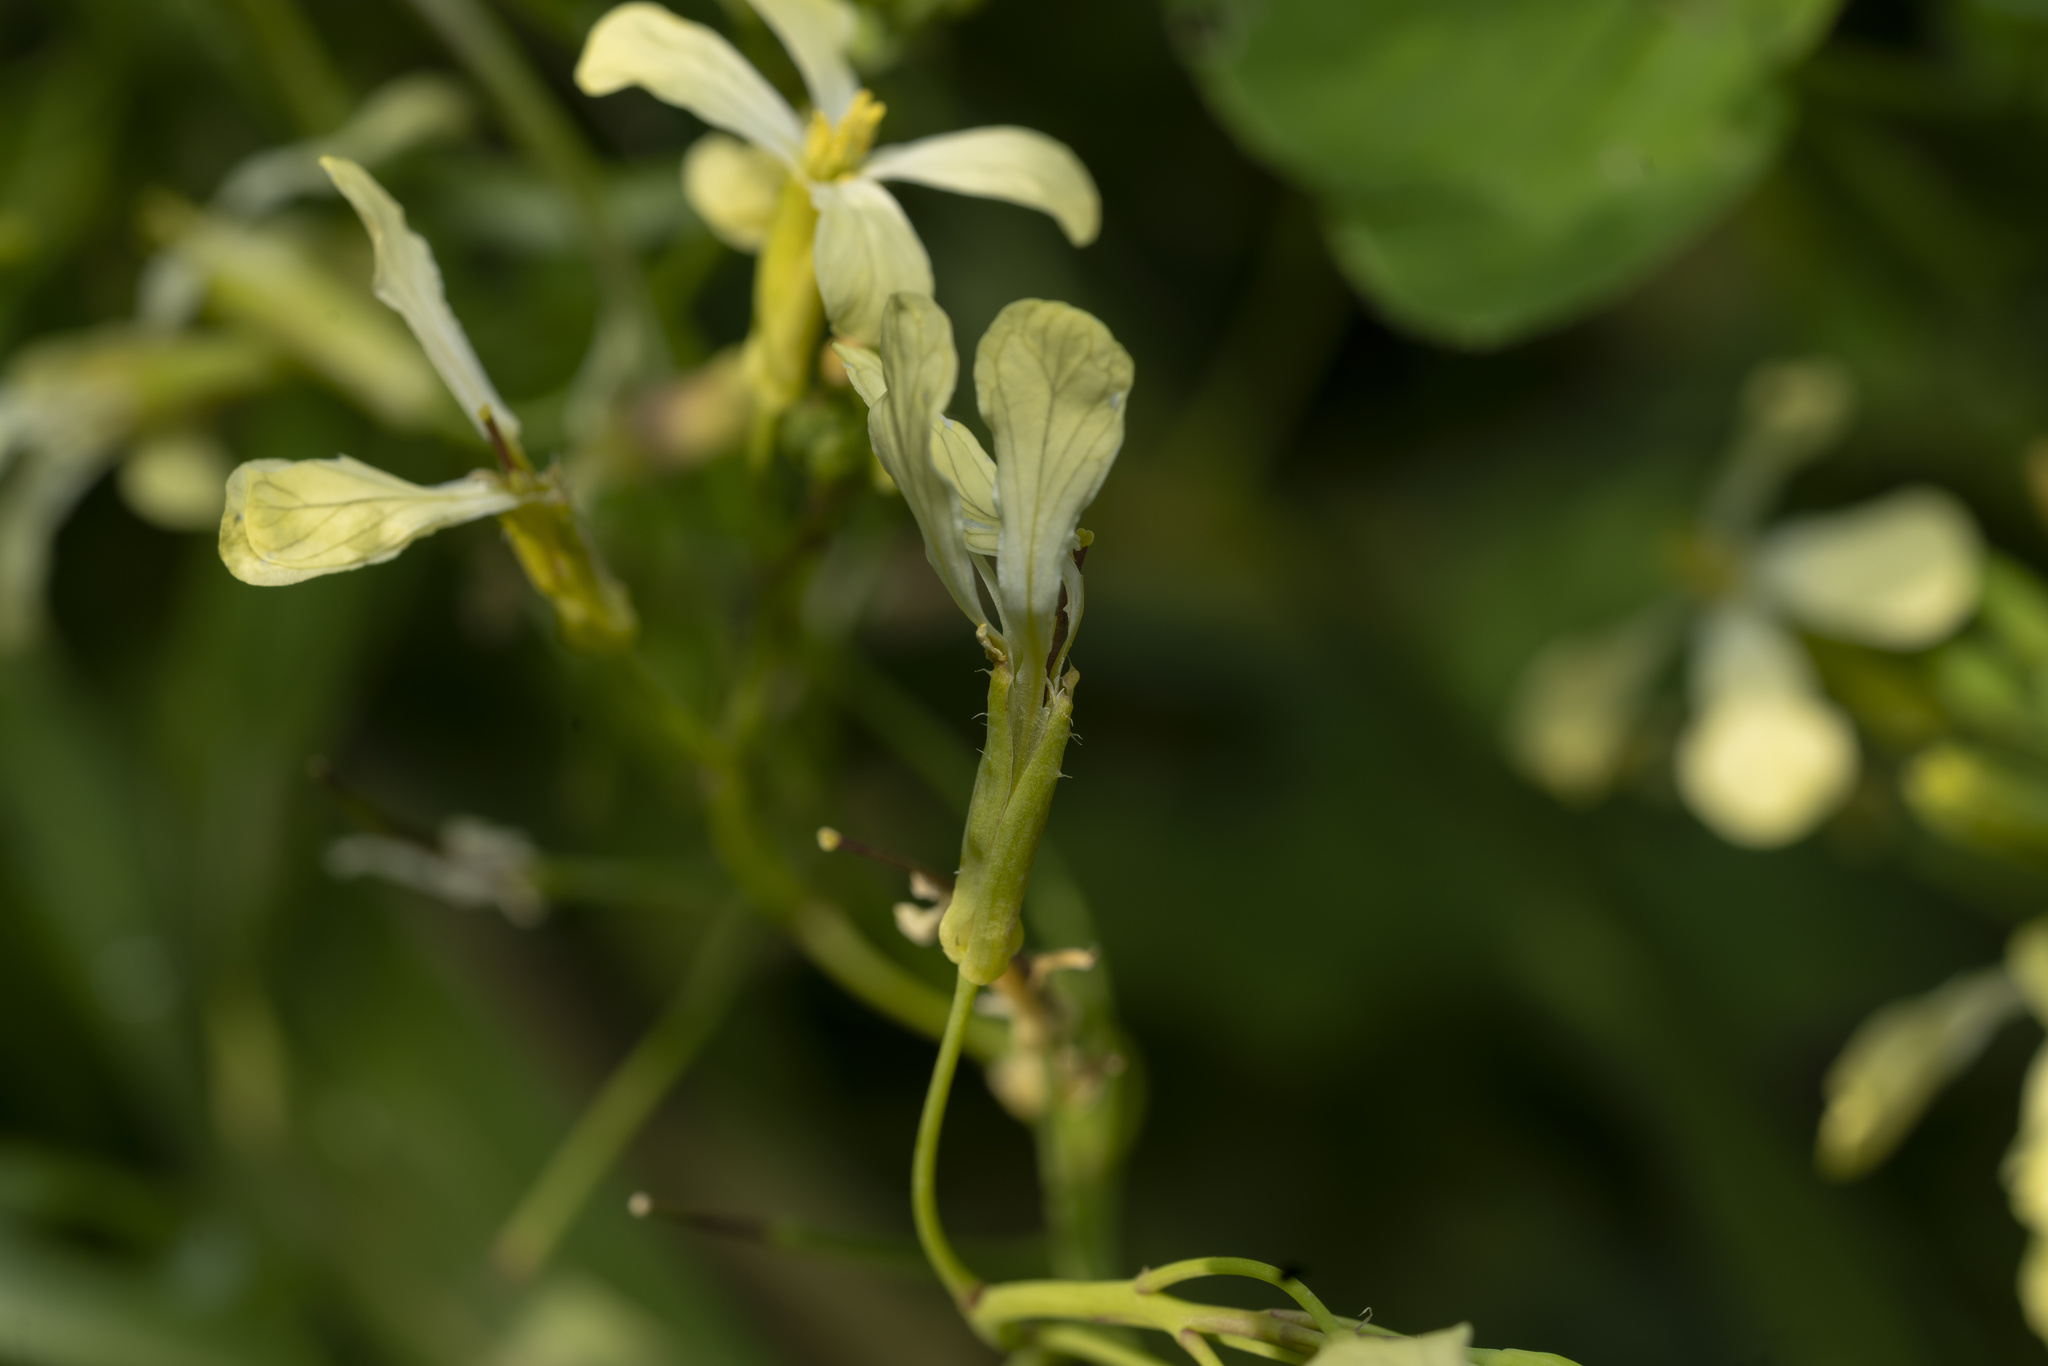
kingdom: Plantae
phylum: Tracheophyta
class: Magnoliopsida
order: Brassicales
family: Brassicaceae
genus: Raphanus
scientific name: Raphanus raphanistrum
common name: Wild radish
